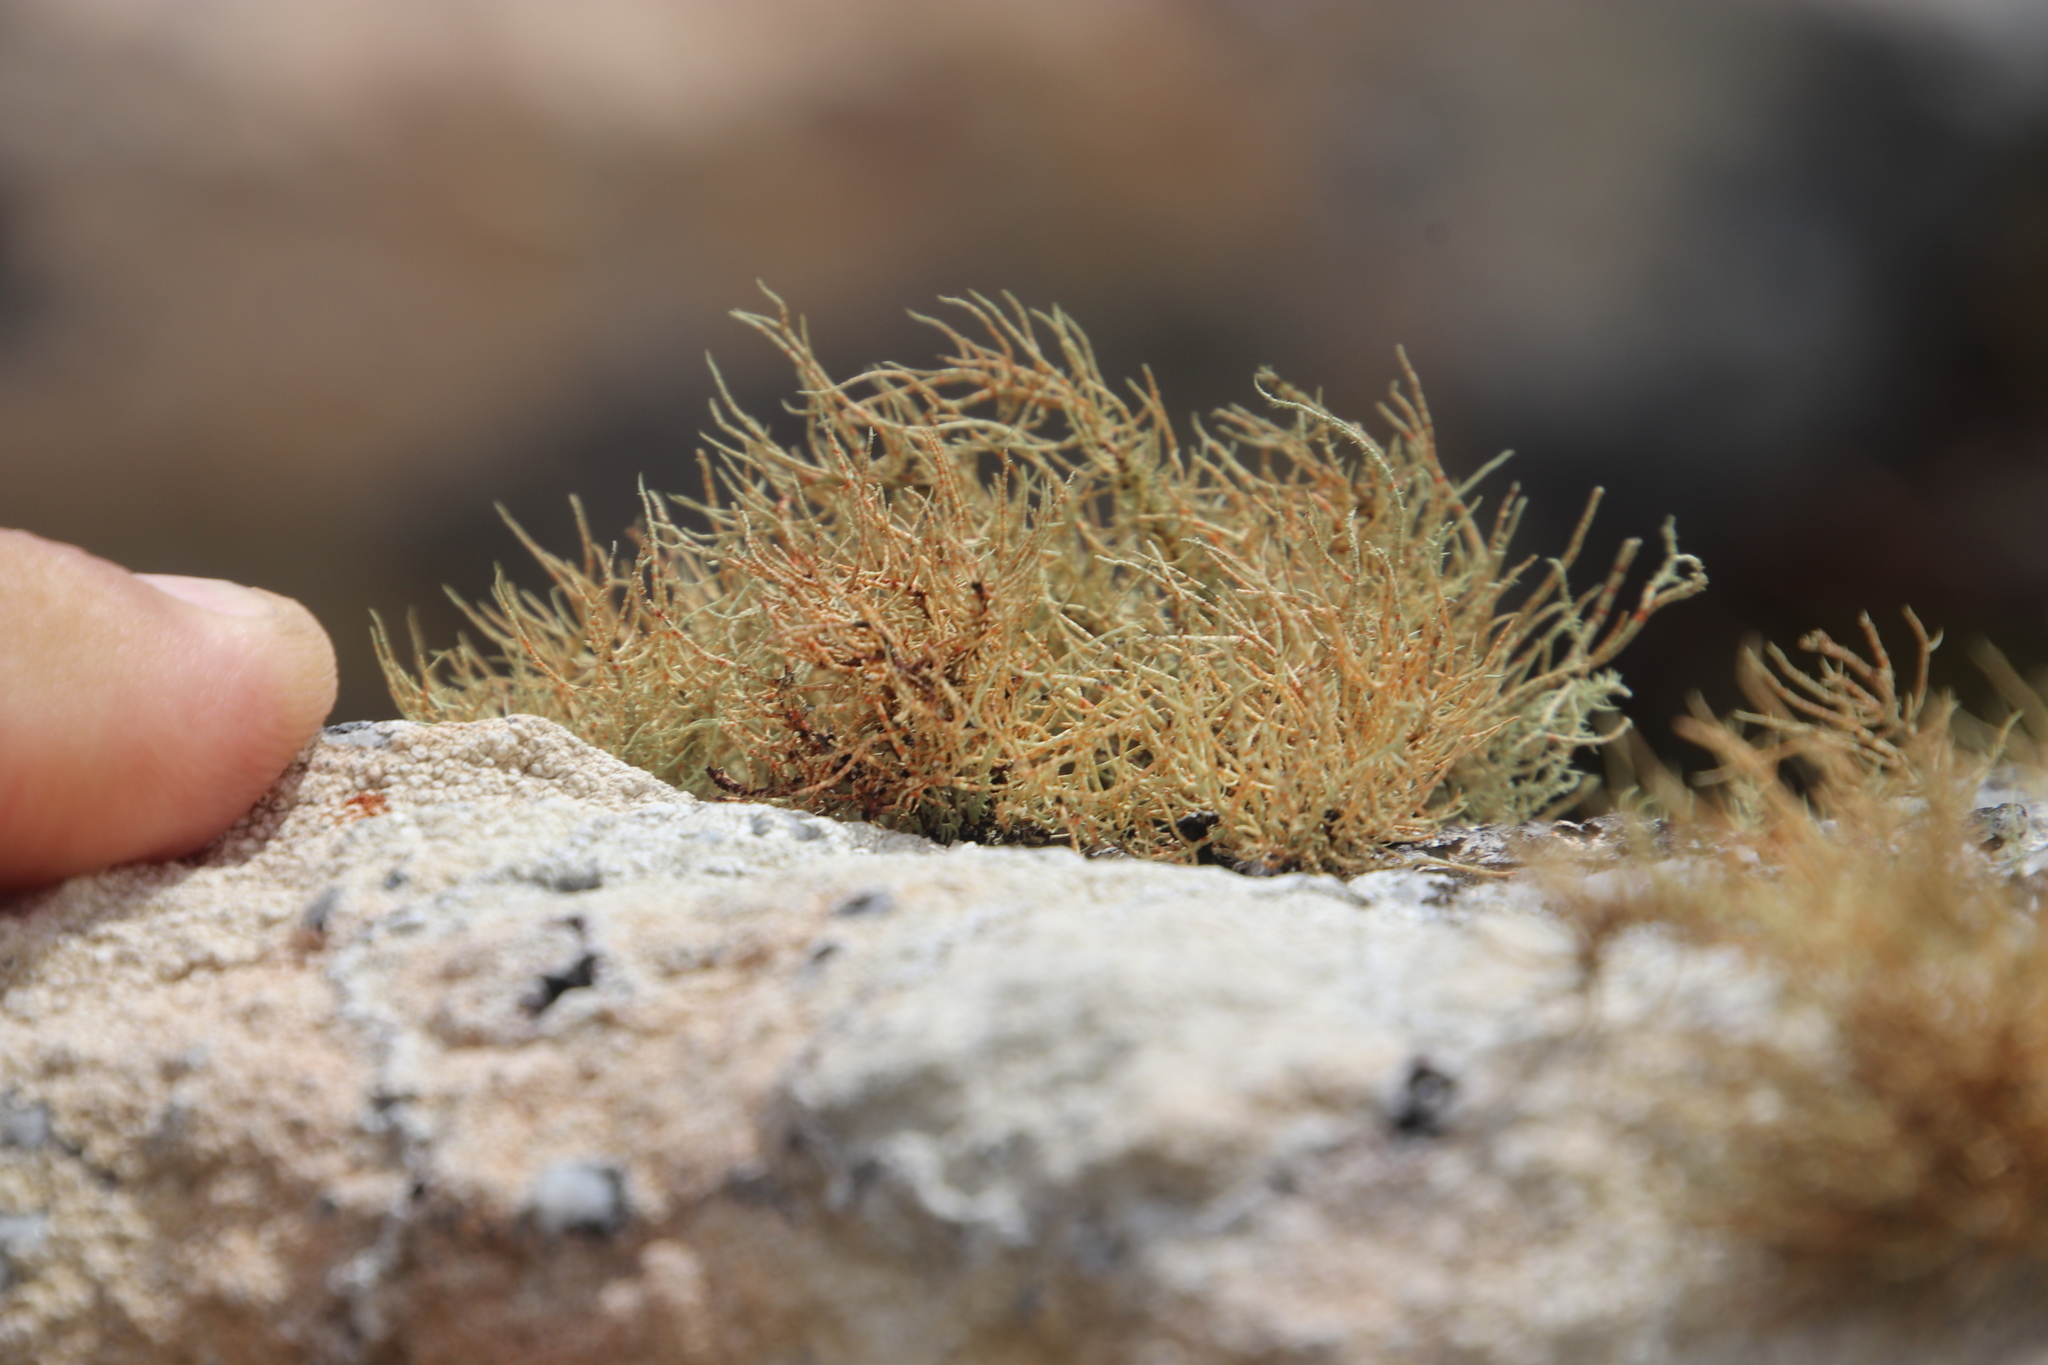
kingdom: Fungi
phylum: Ascomycota
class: Lecanoromycetes
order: Lecanorales
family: Parmeliaceae
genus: Usnea
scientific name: Usnea maculata
